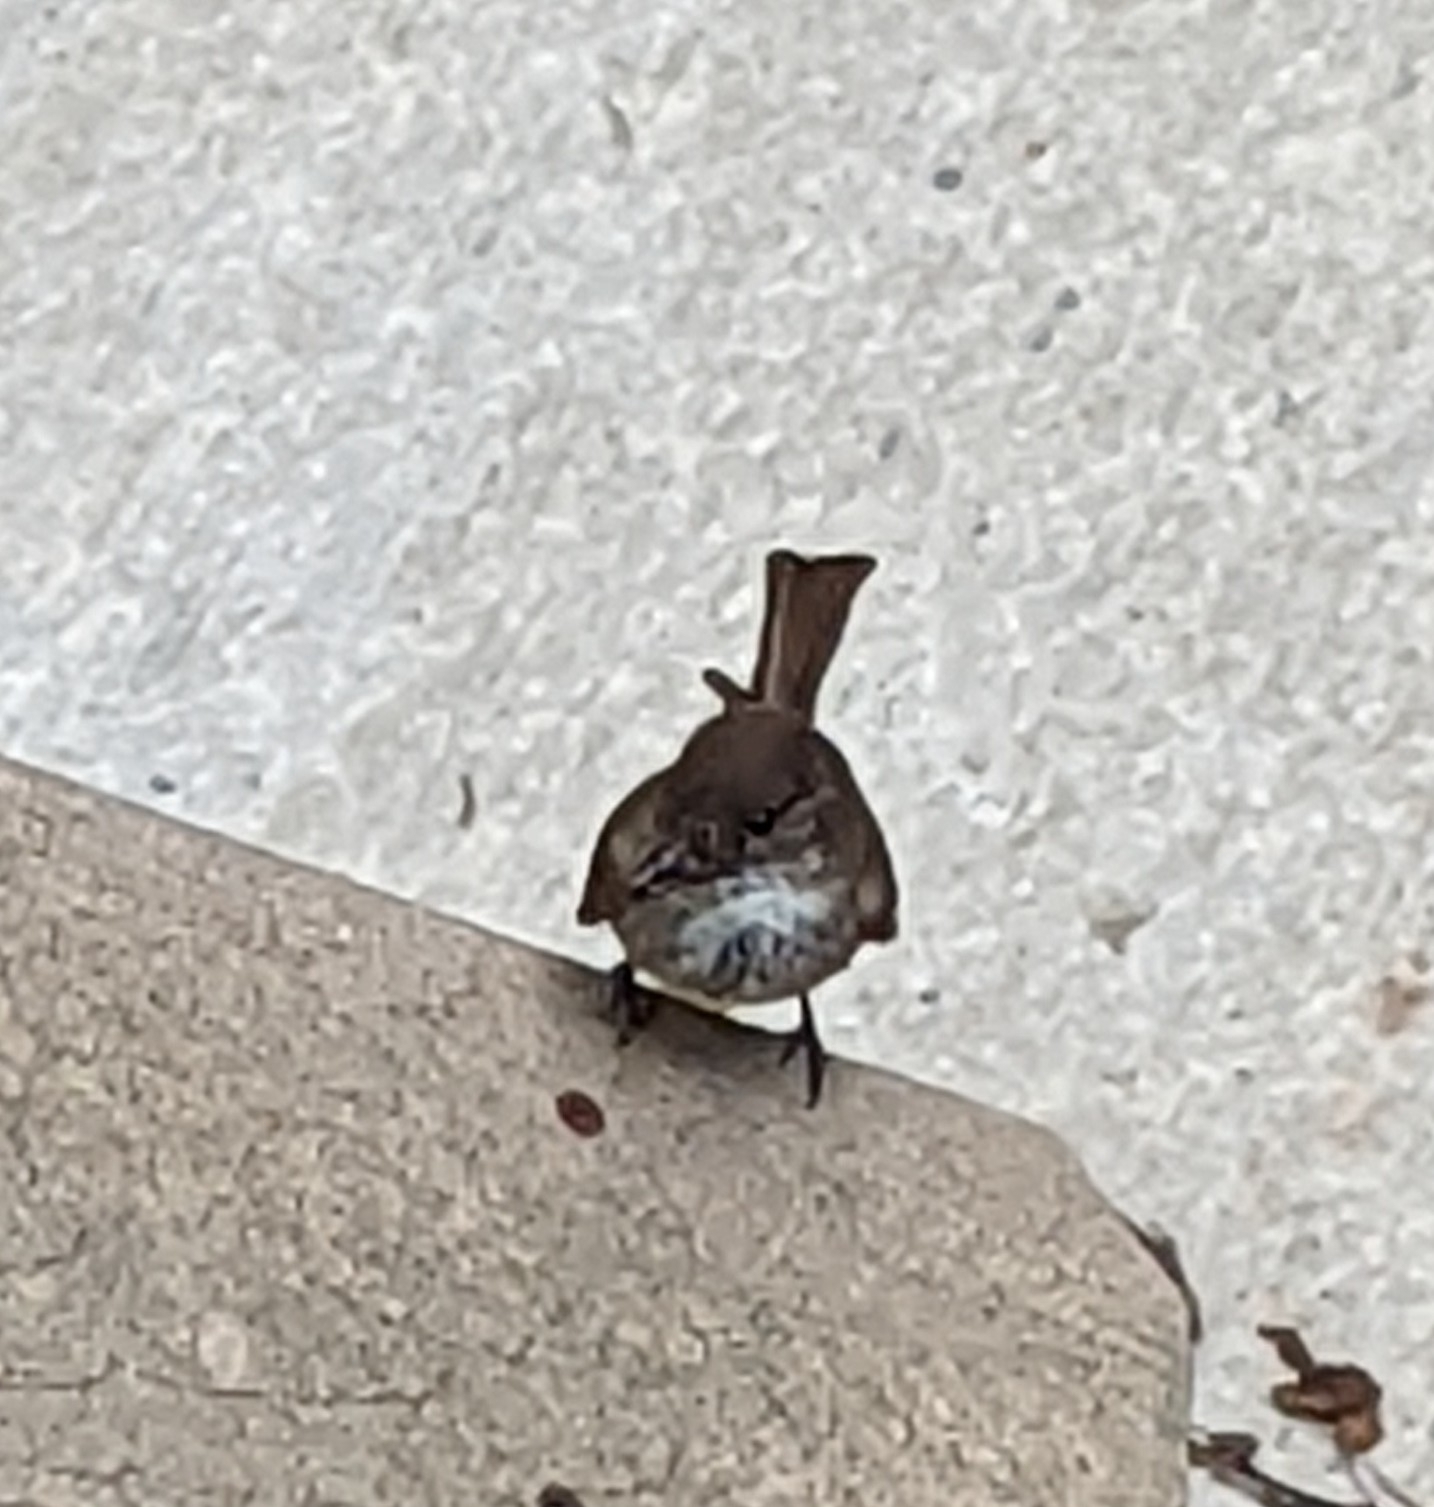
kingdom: Animalia
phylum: Chordata
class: Aves
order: Passeriformes
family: Tyrannidae
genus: Sayornis
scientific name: Sayornis phoebe
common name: Eastern phoebe
